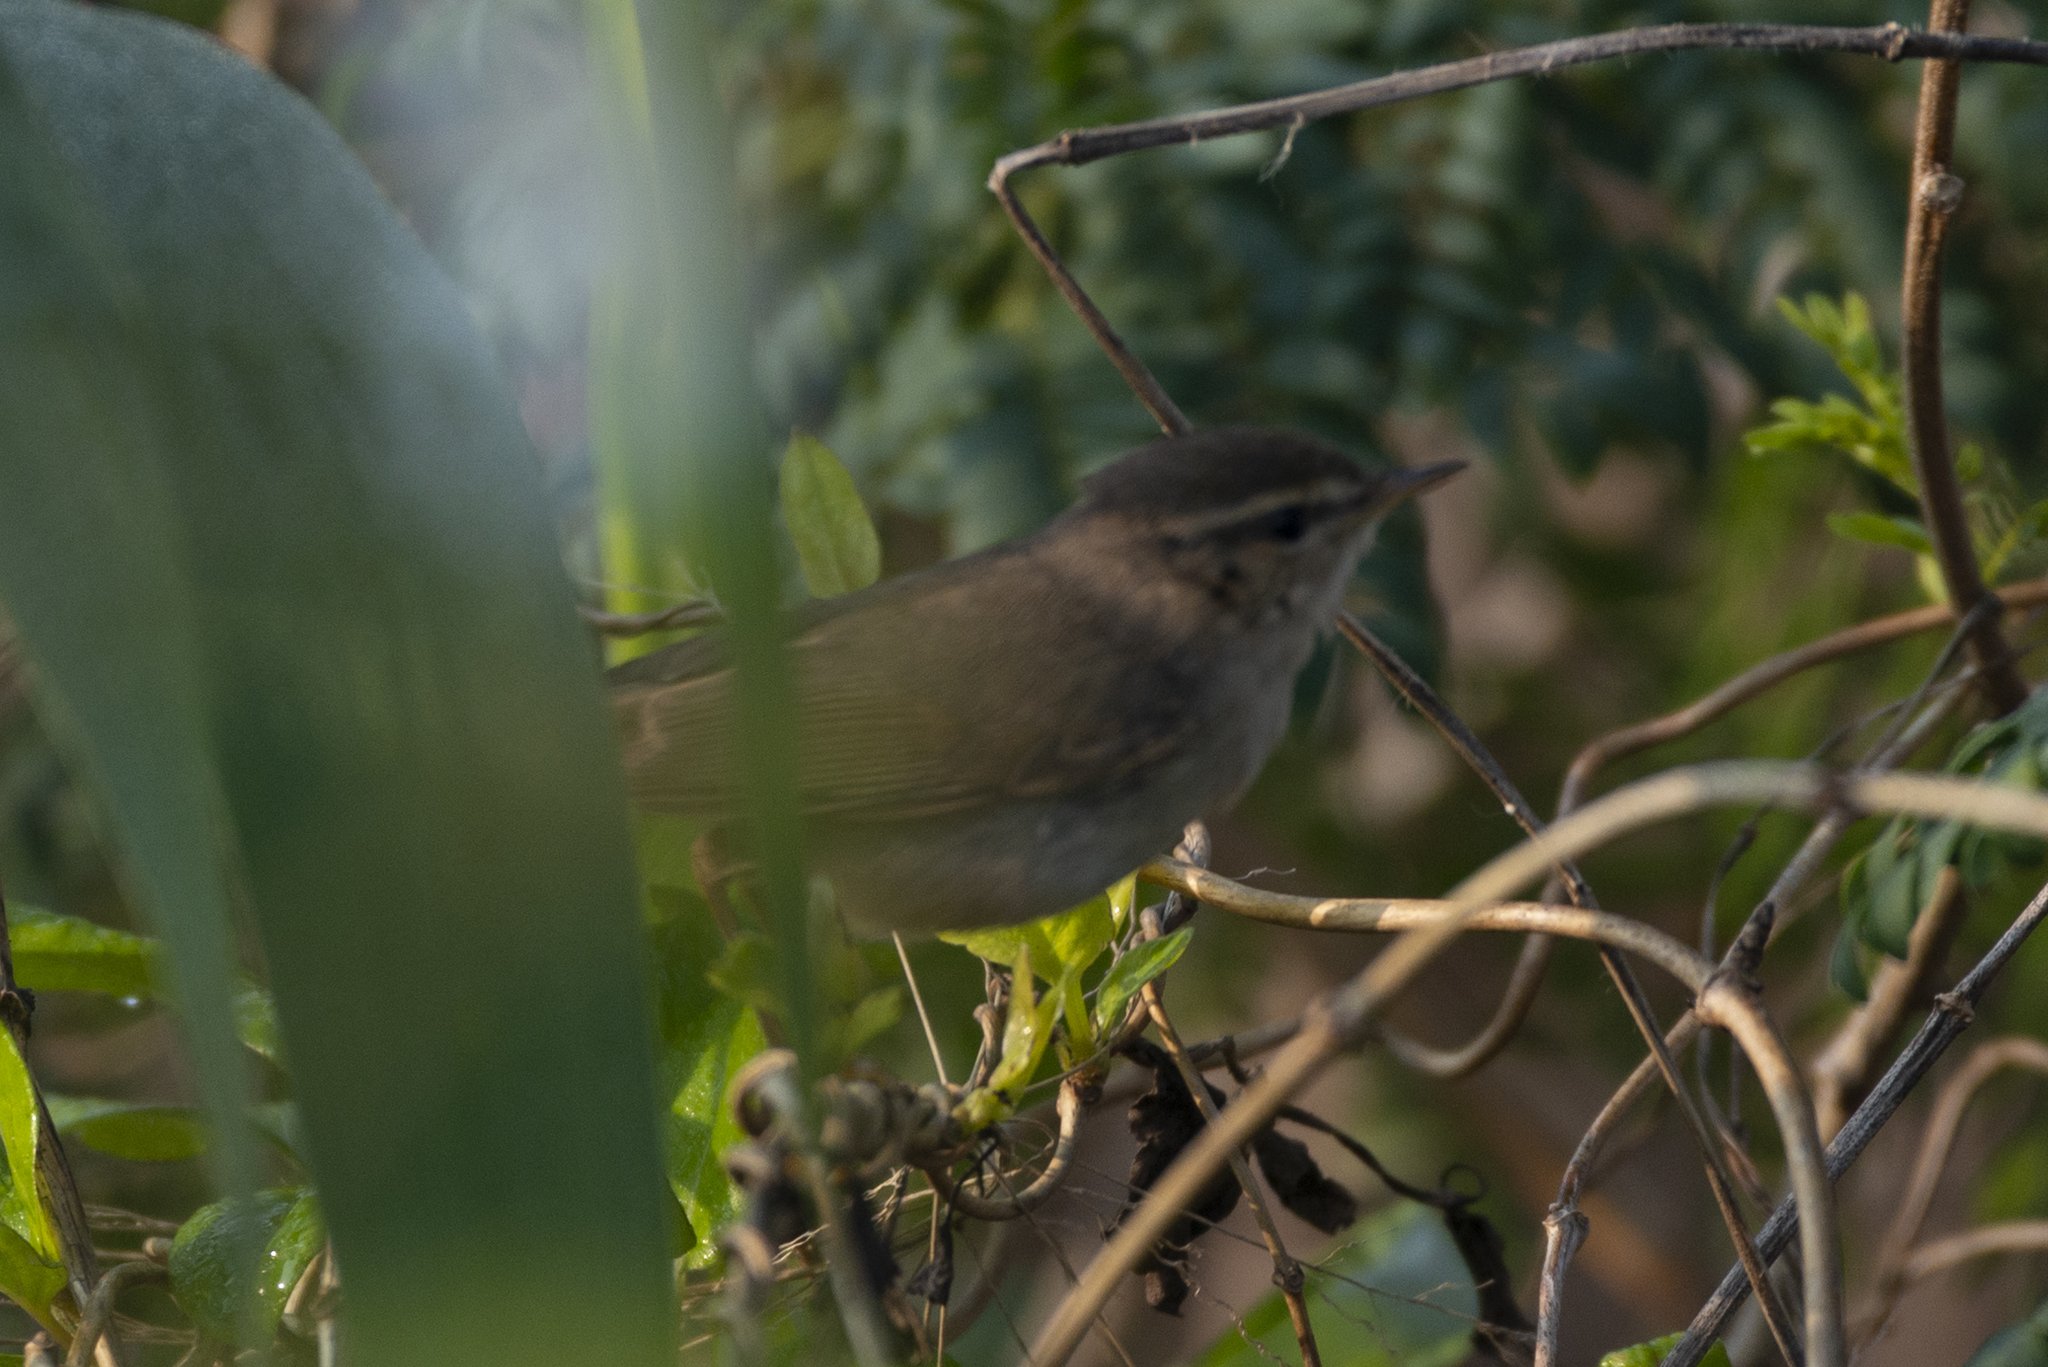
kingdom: Animalia
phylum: Chordata
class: Aves
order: Passeriformes
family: Phylloscopidae
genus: Phylloscopus
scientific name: Phylloscopus fuscatus
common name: Dusky warbler
